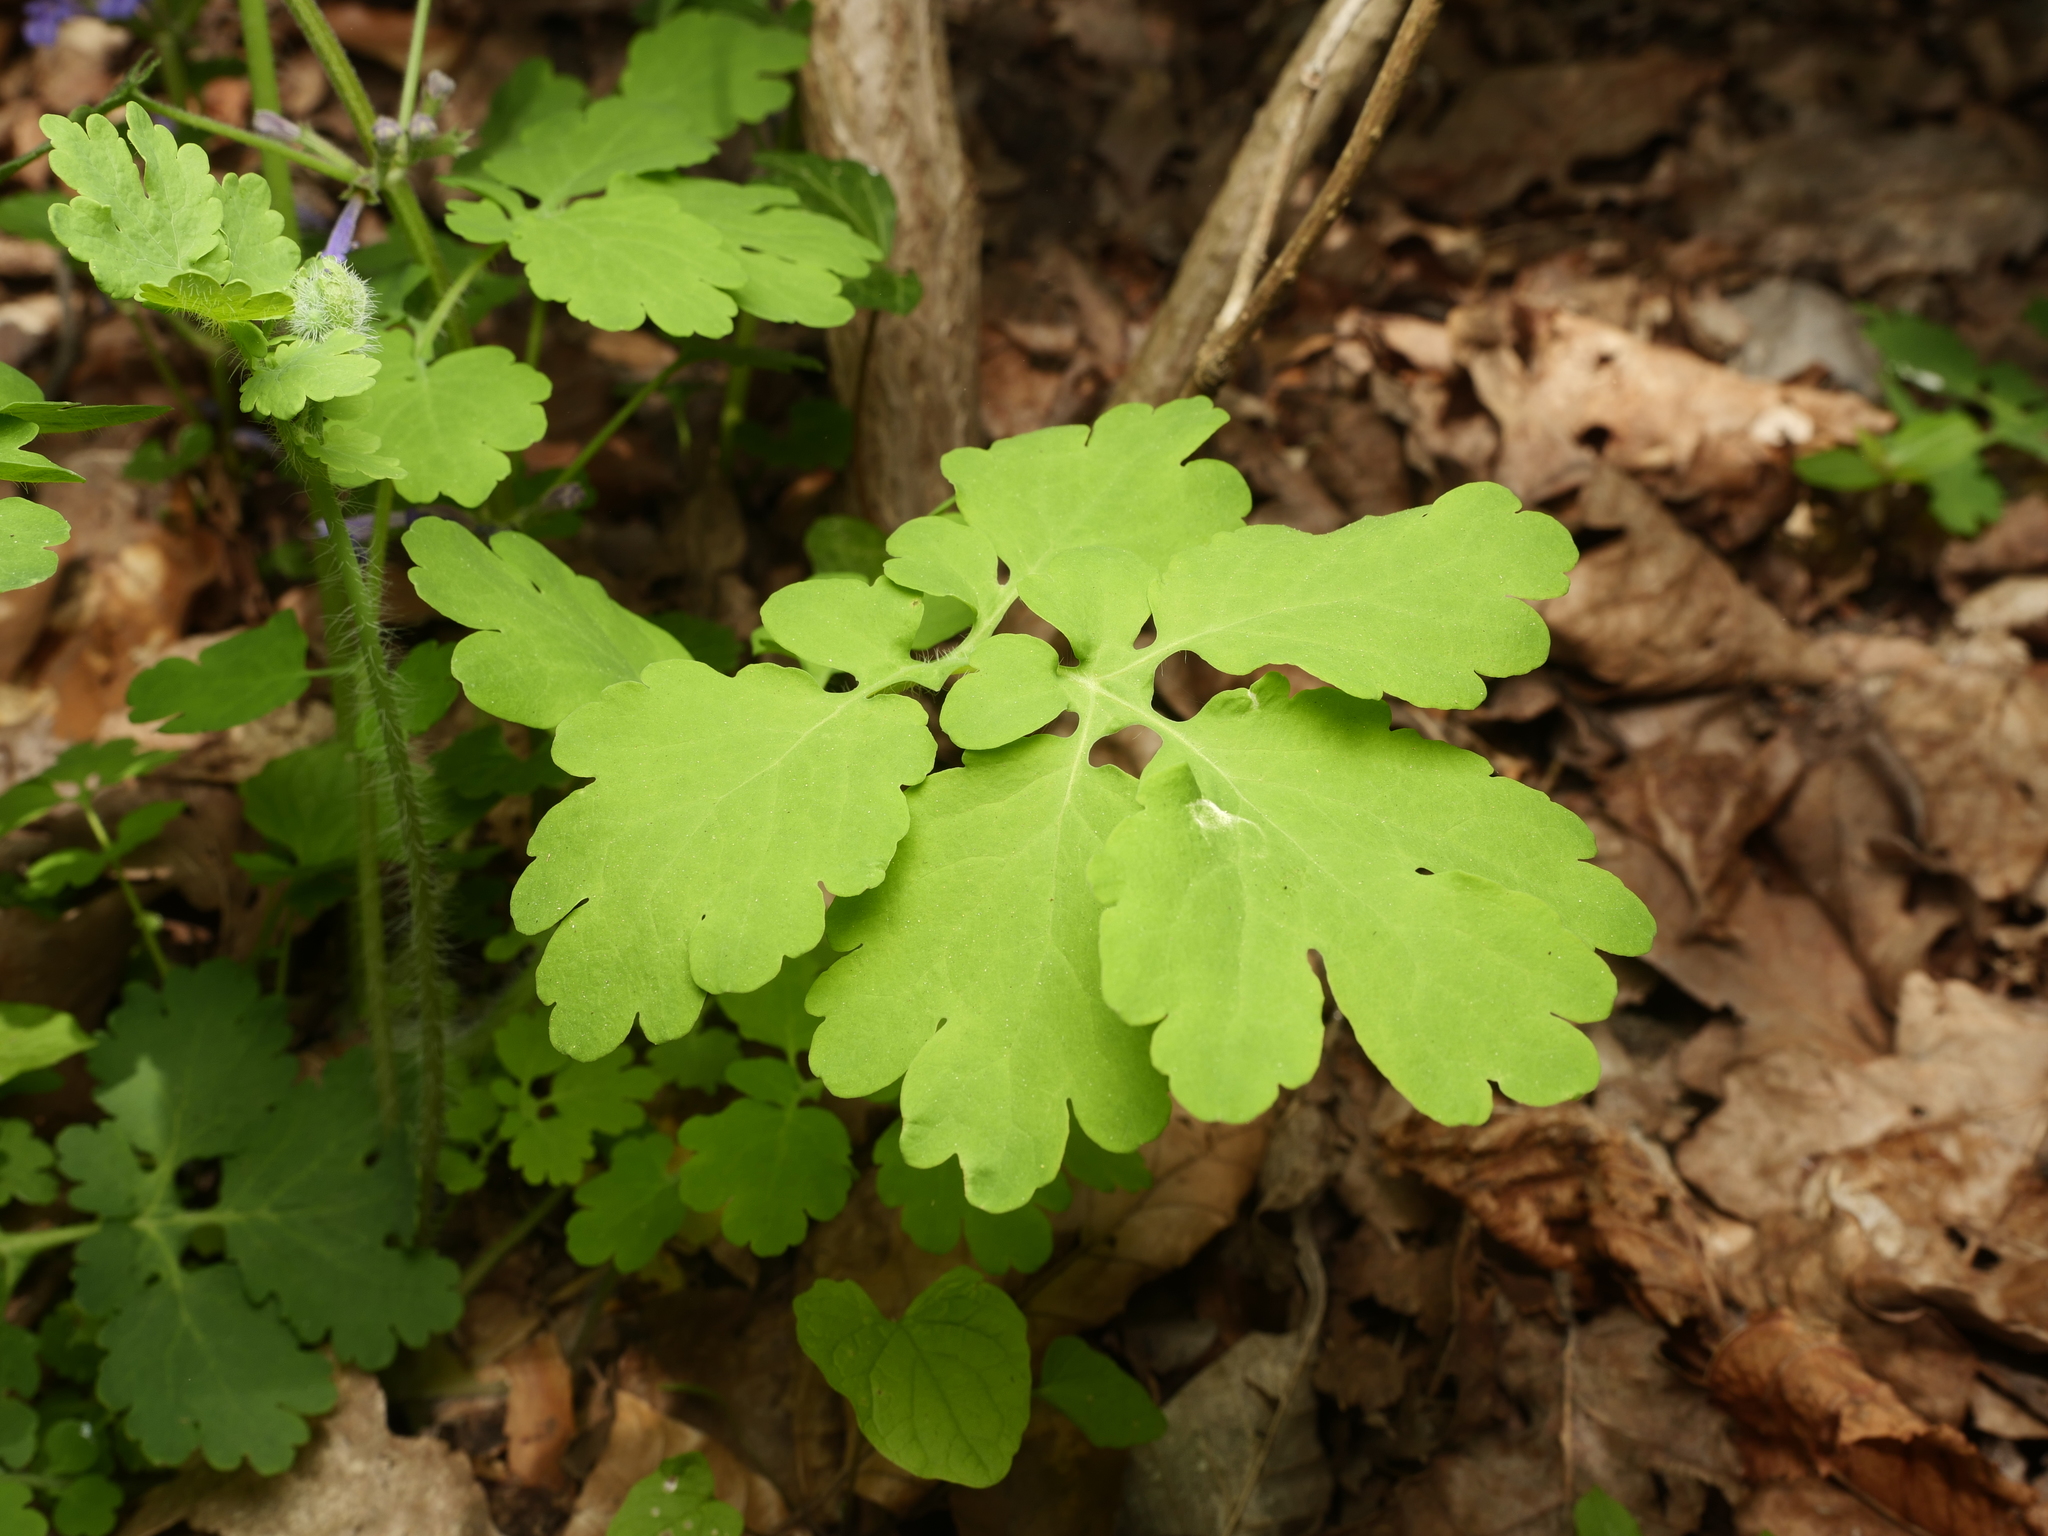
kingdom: Plantae
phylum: Tracheophyta
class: Magnoliopsida
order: Ranunculales
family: Papaveraceae
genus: Chelidonium
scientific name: Chelidonium majus
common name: Greater celandine
